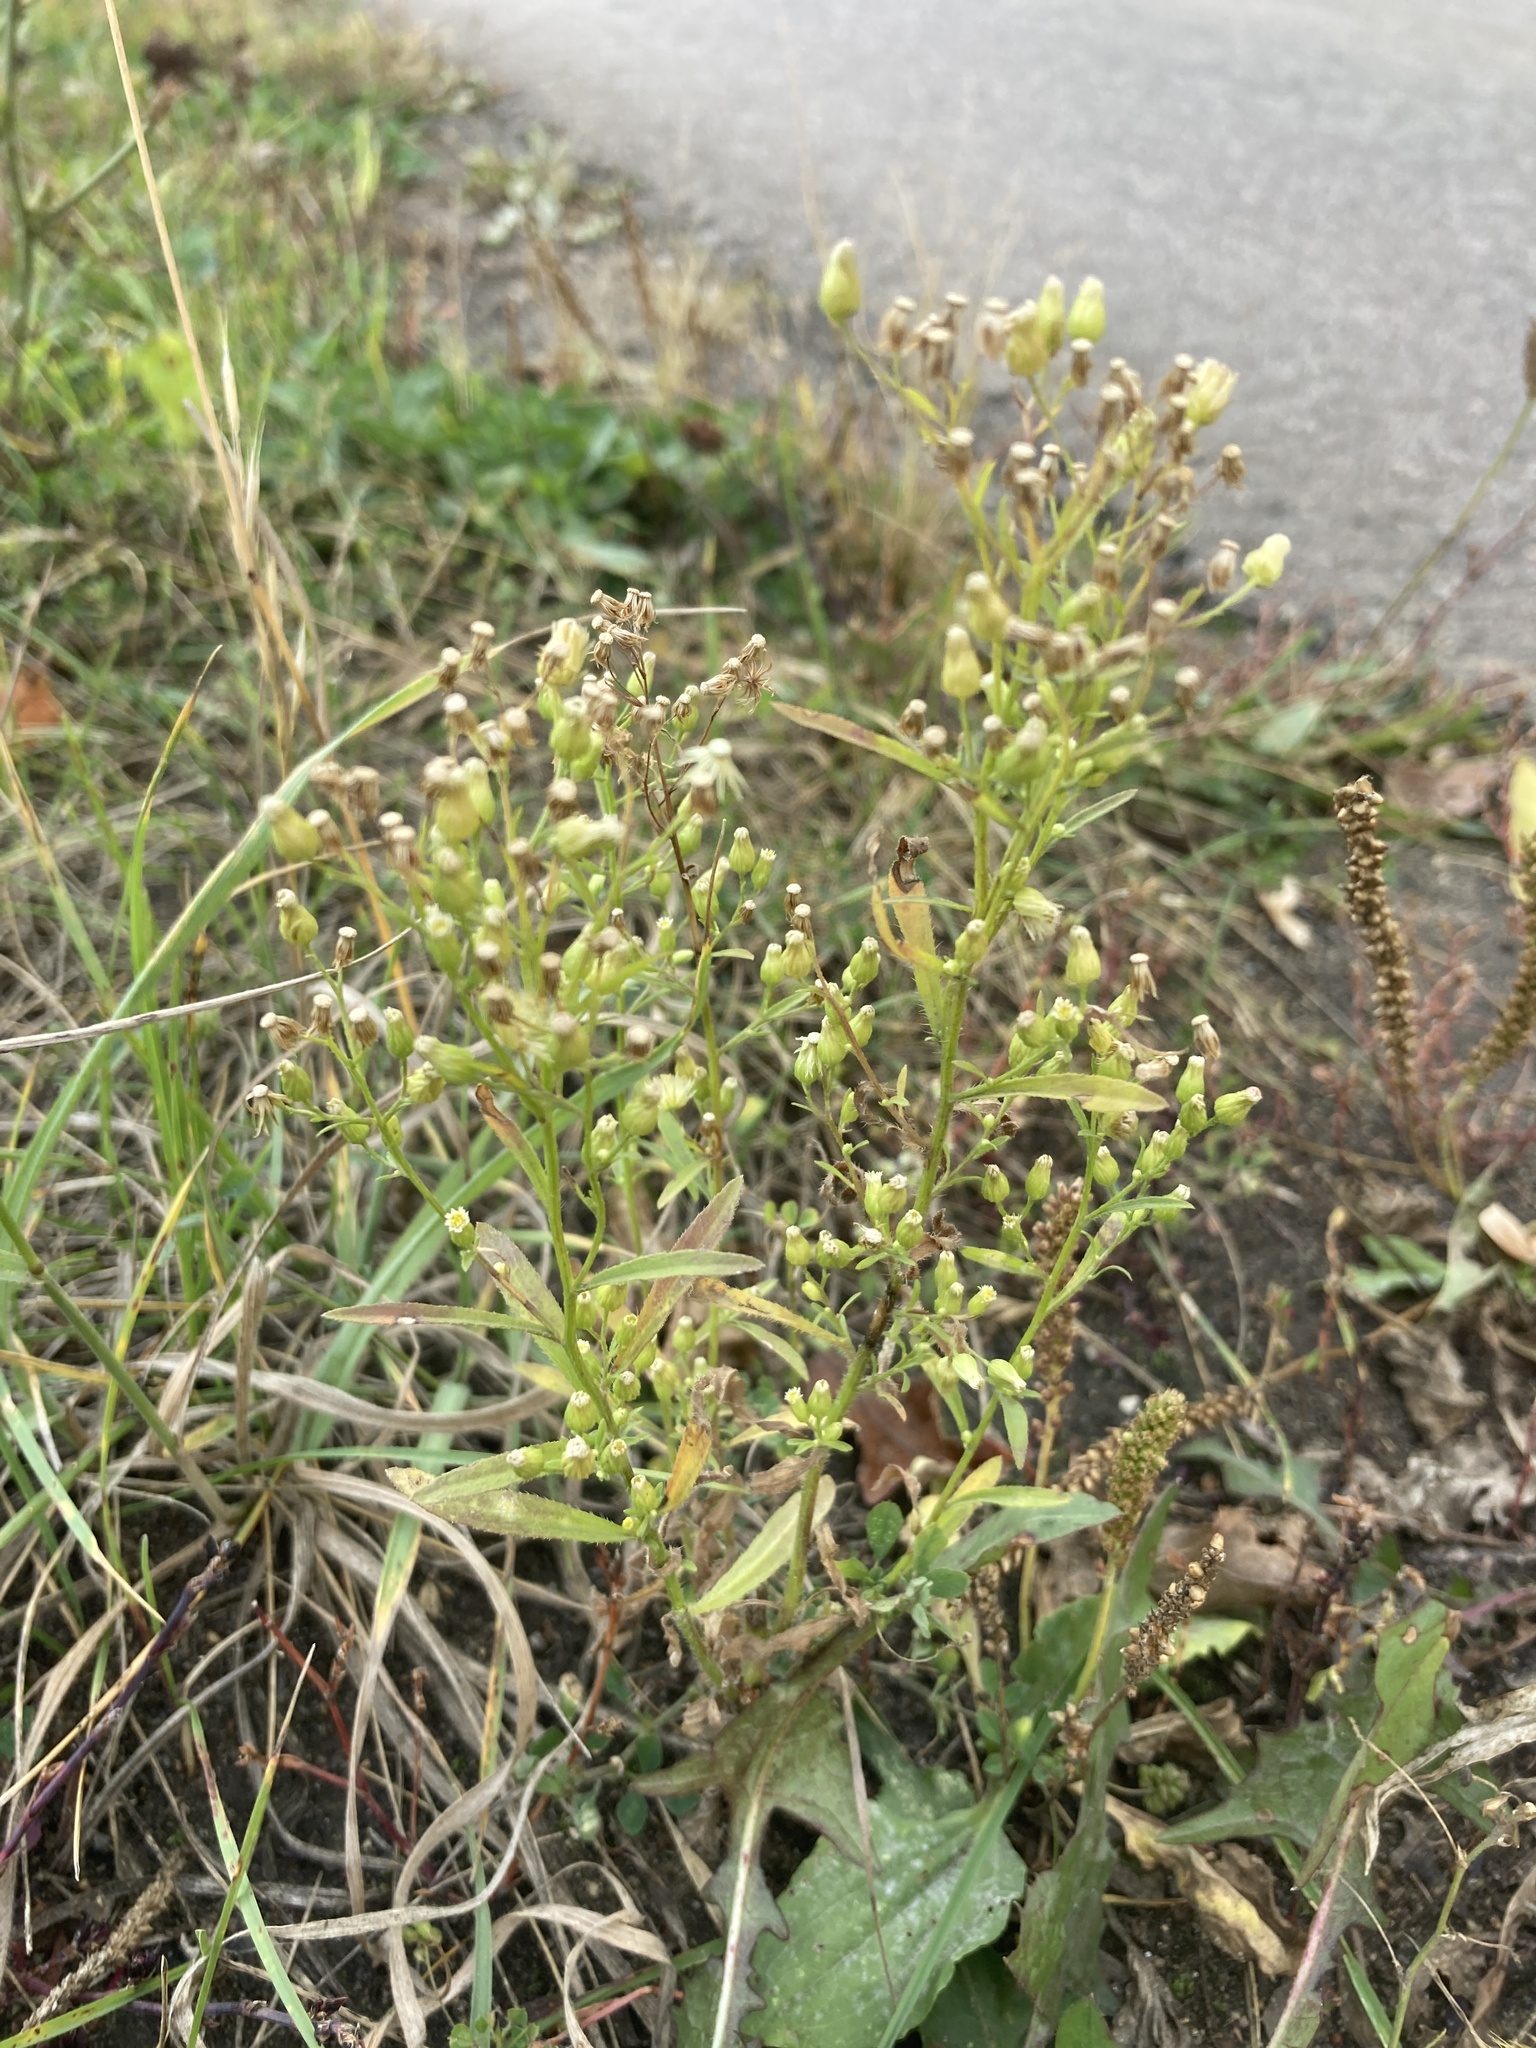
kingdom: Plantae
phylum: Tracheophyta
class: Magnoliopsida
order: Asterales
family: Asteraceae
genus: Erigeron
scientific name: Erigeron canadensis
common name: Canadian fleabane
